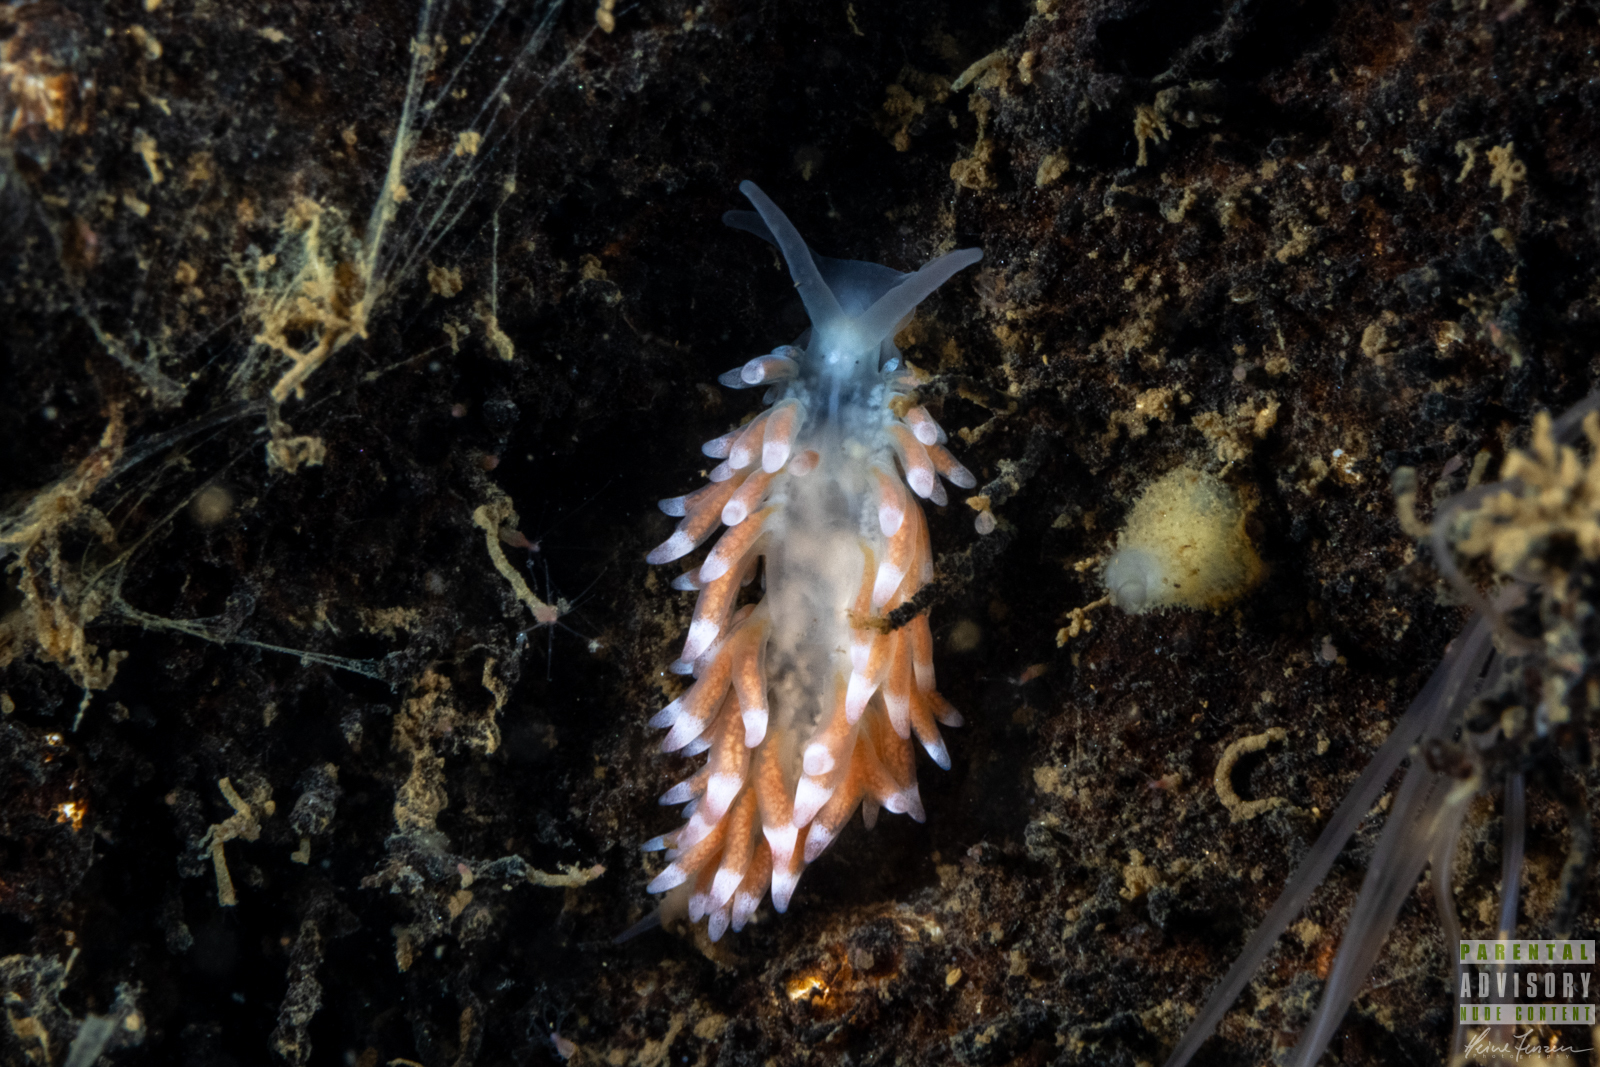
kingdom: Animalia
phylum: Mollusca
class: Gastropoda
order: Nudibranchia
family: Trinchesiidae
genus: Catriona
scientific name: Catriona aurantia
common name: Corange-tip cuthona
